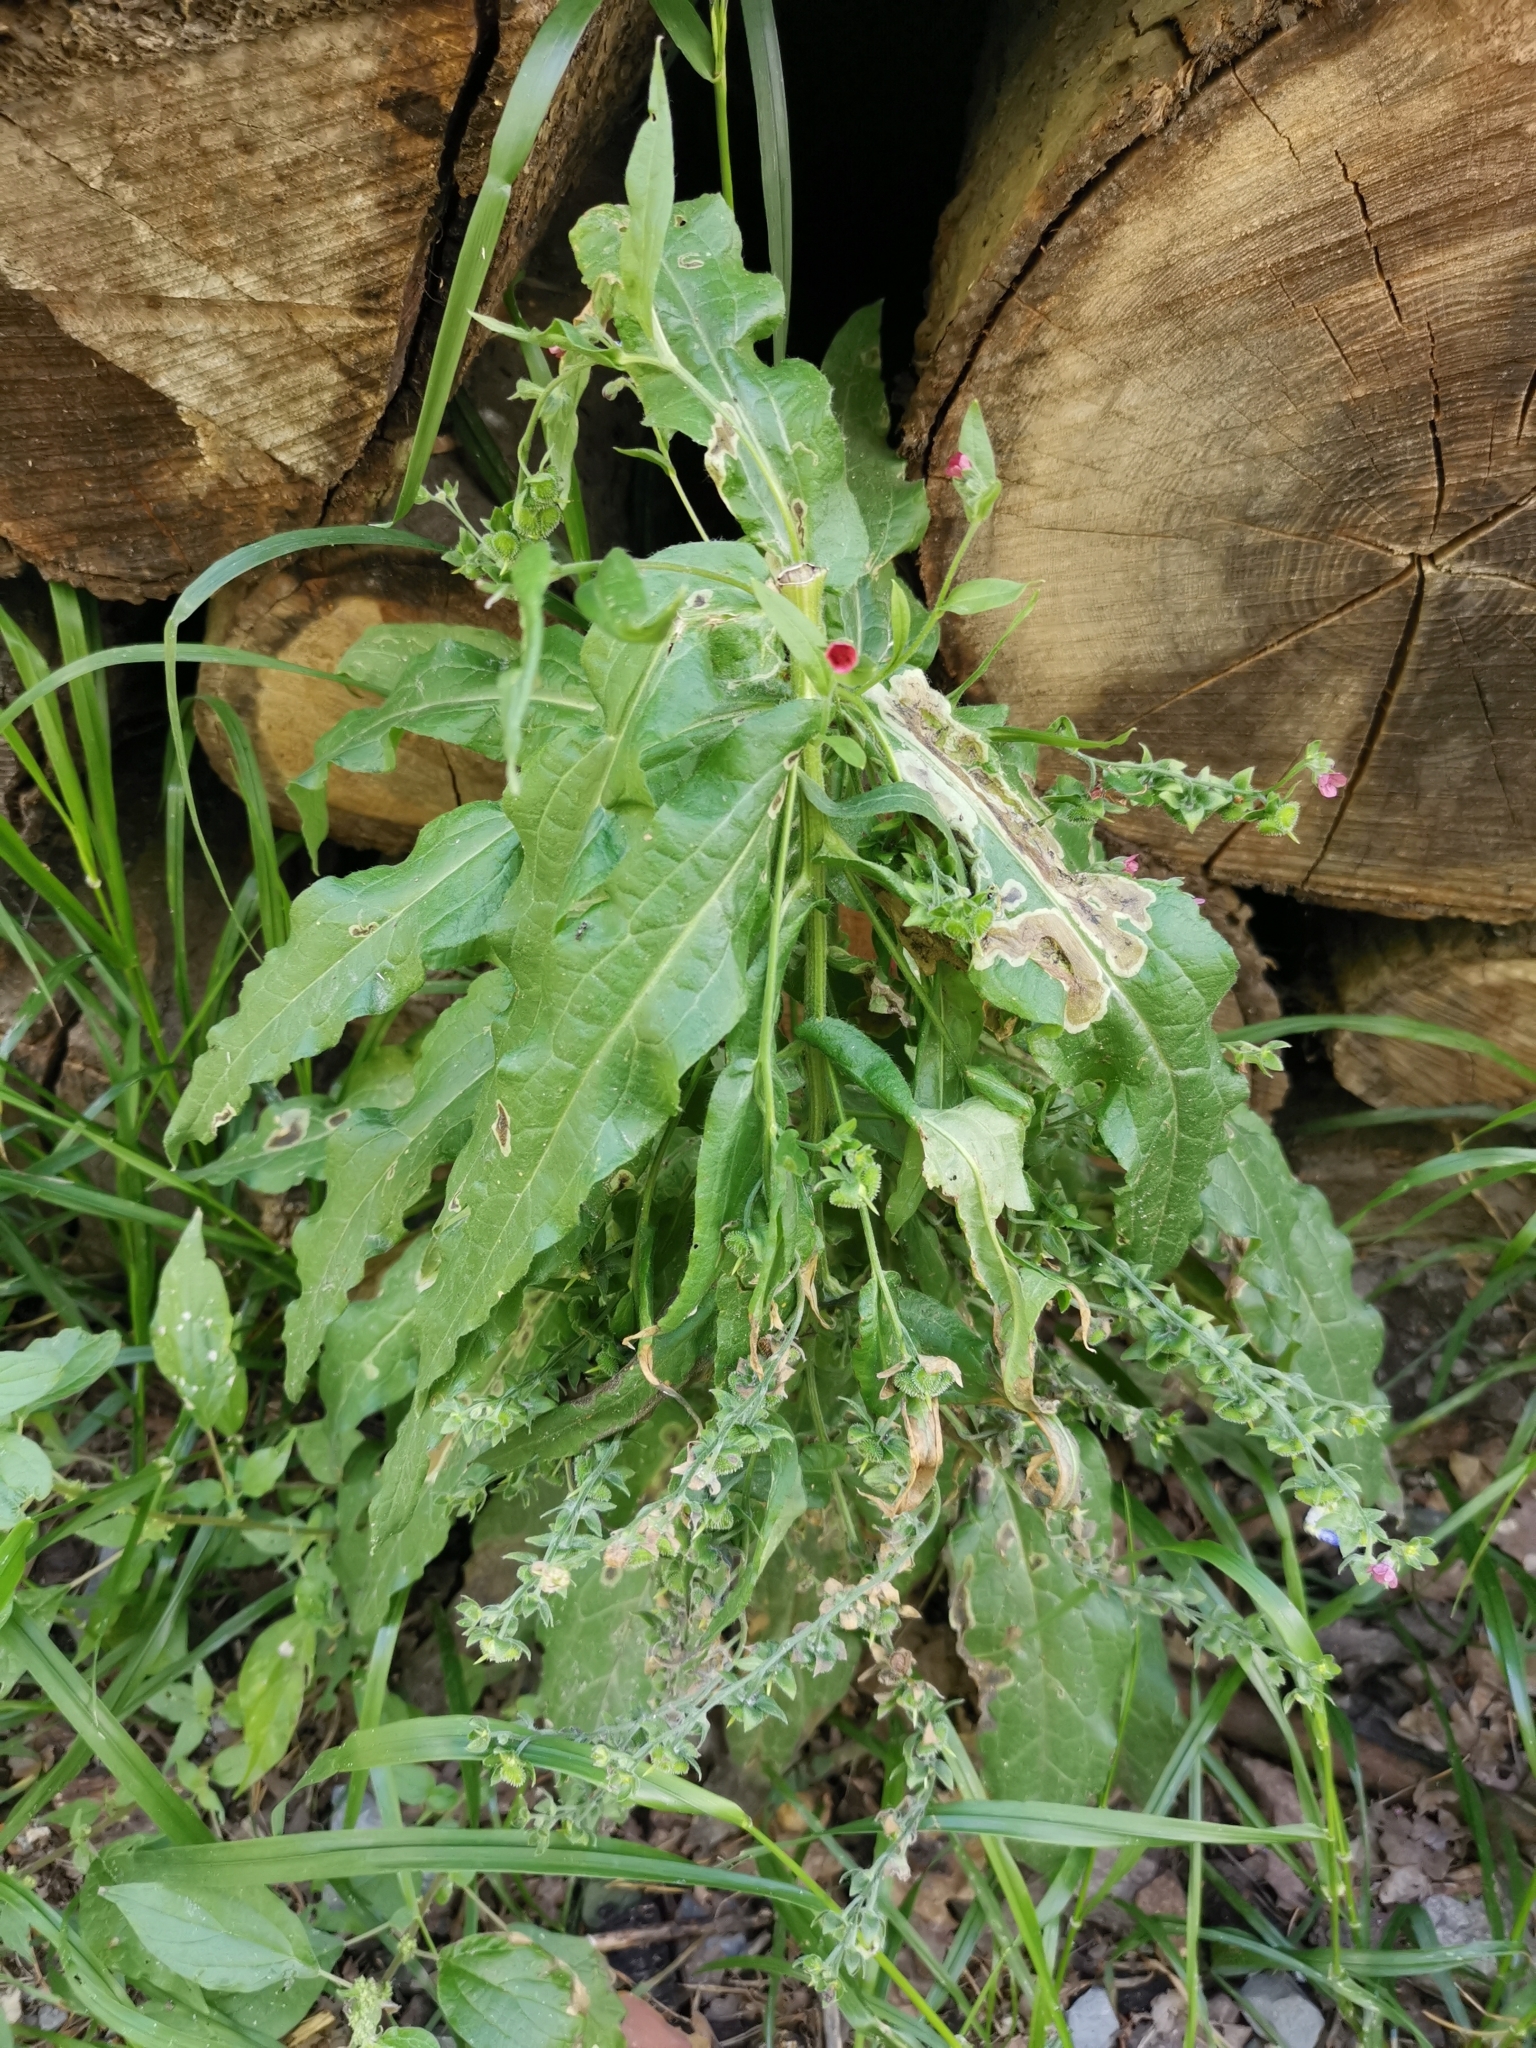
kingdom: Plantae
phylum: Tracheophyta
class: Magnoliopsida
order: Boraginales
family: Boraginaceae
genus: Cynoglossum
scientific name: Cynoglossum officinale
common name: Hound's-tongue
